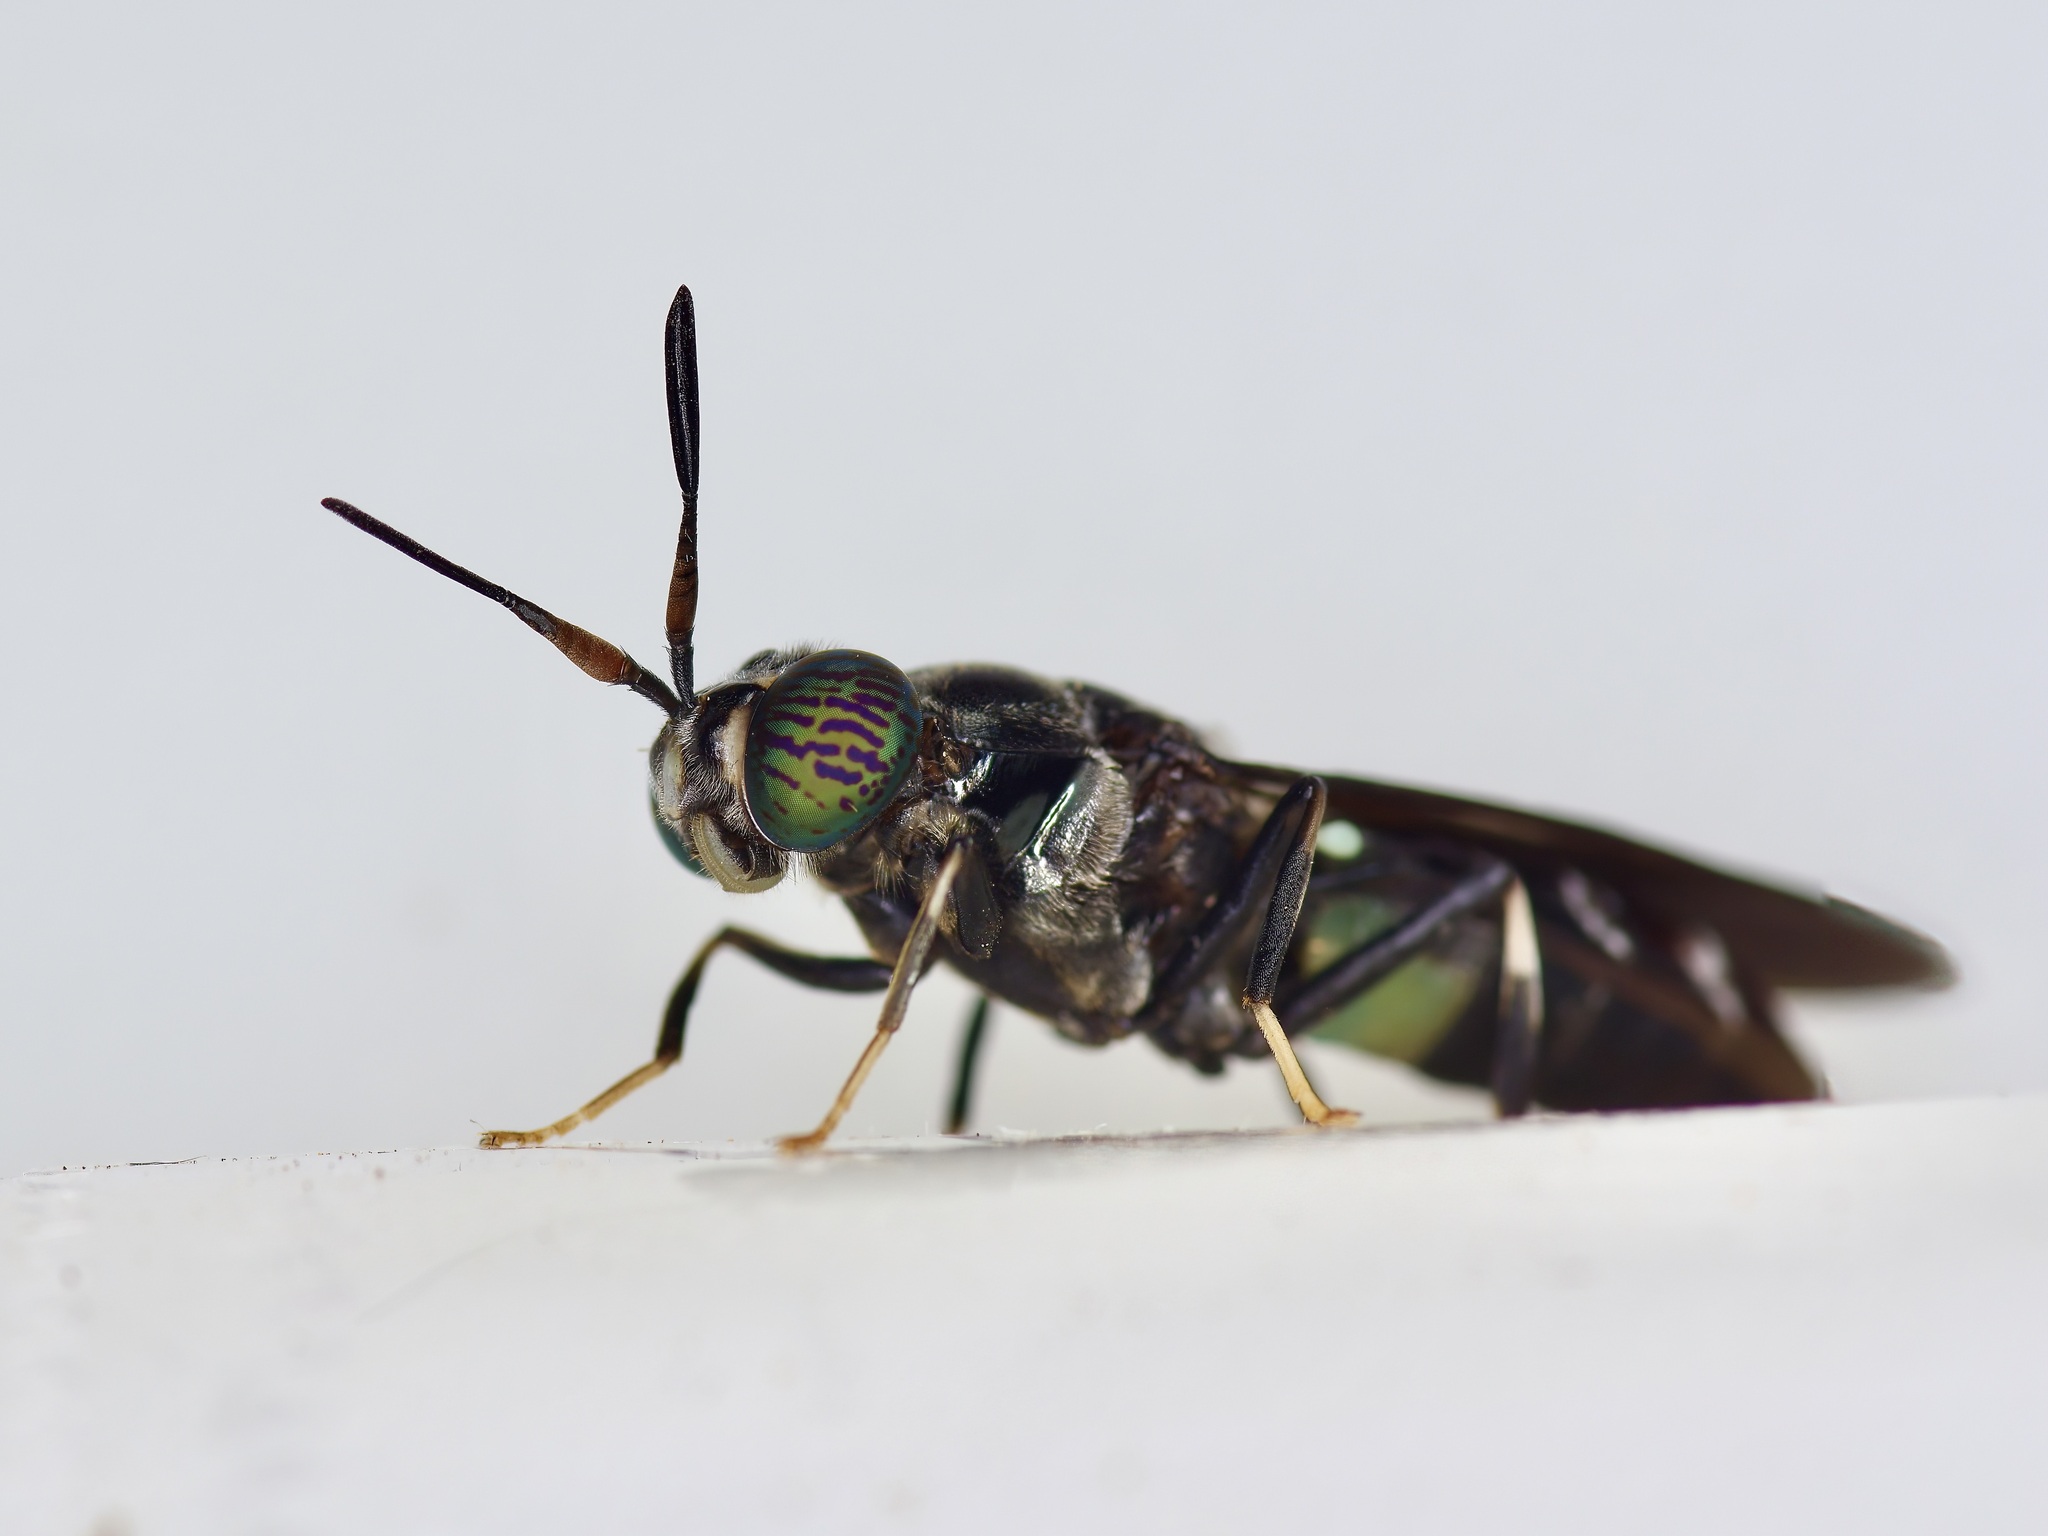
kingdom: Animalia
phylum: Arthropoda
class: Insecta
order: Diptera
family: Stratiomyidae
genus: Hermetia
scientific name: Hermetia illucens
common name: Black soldier fly
